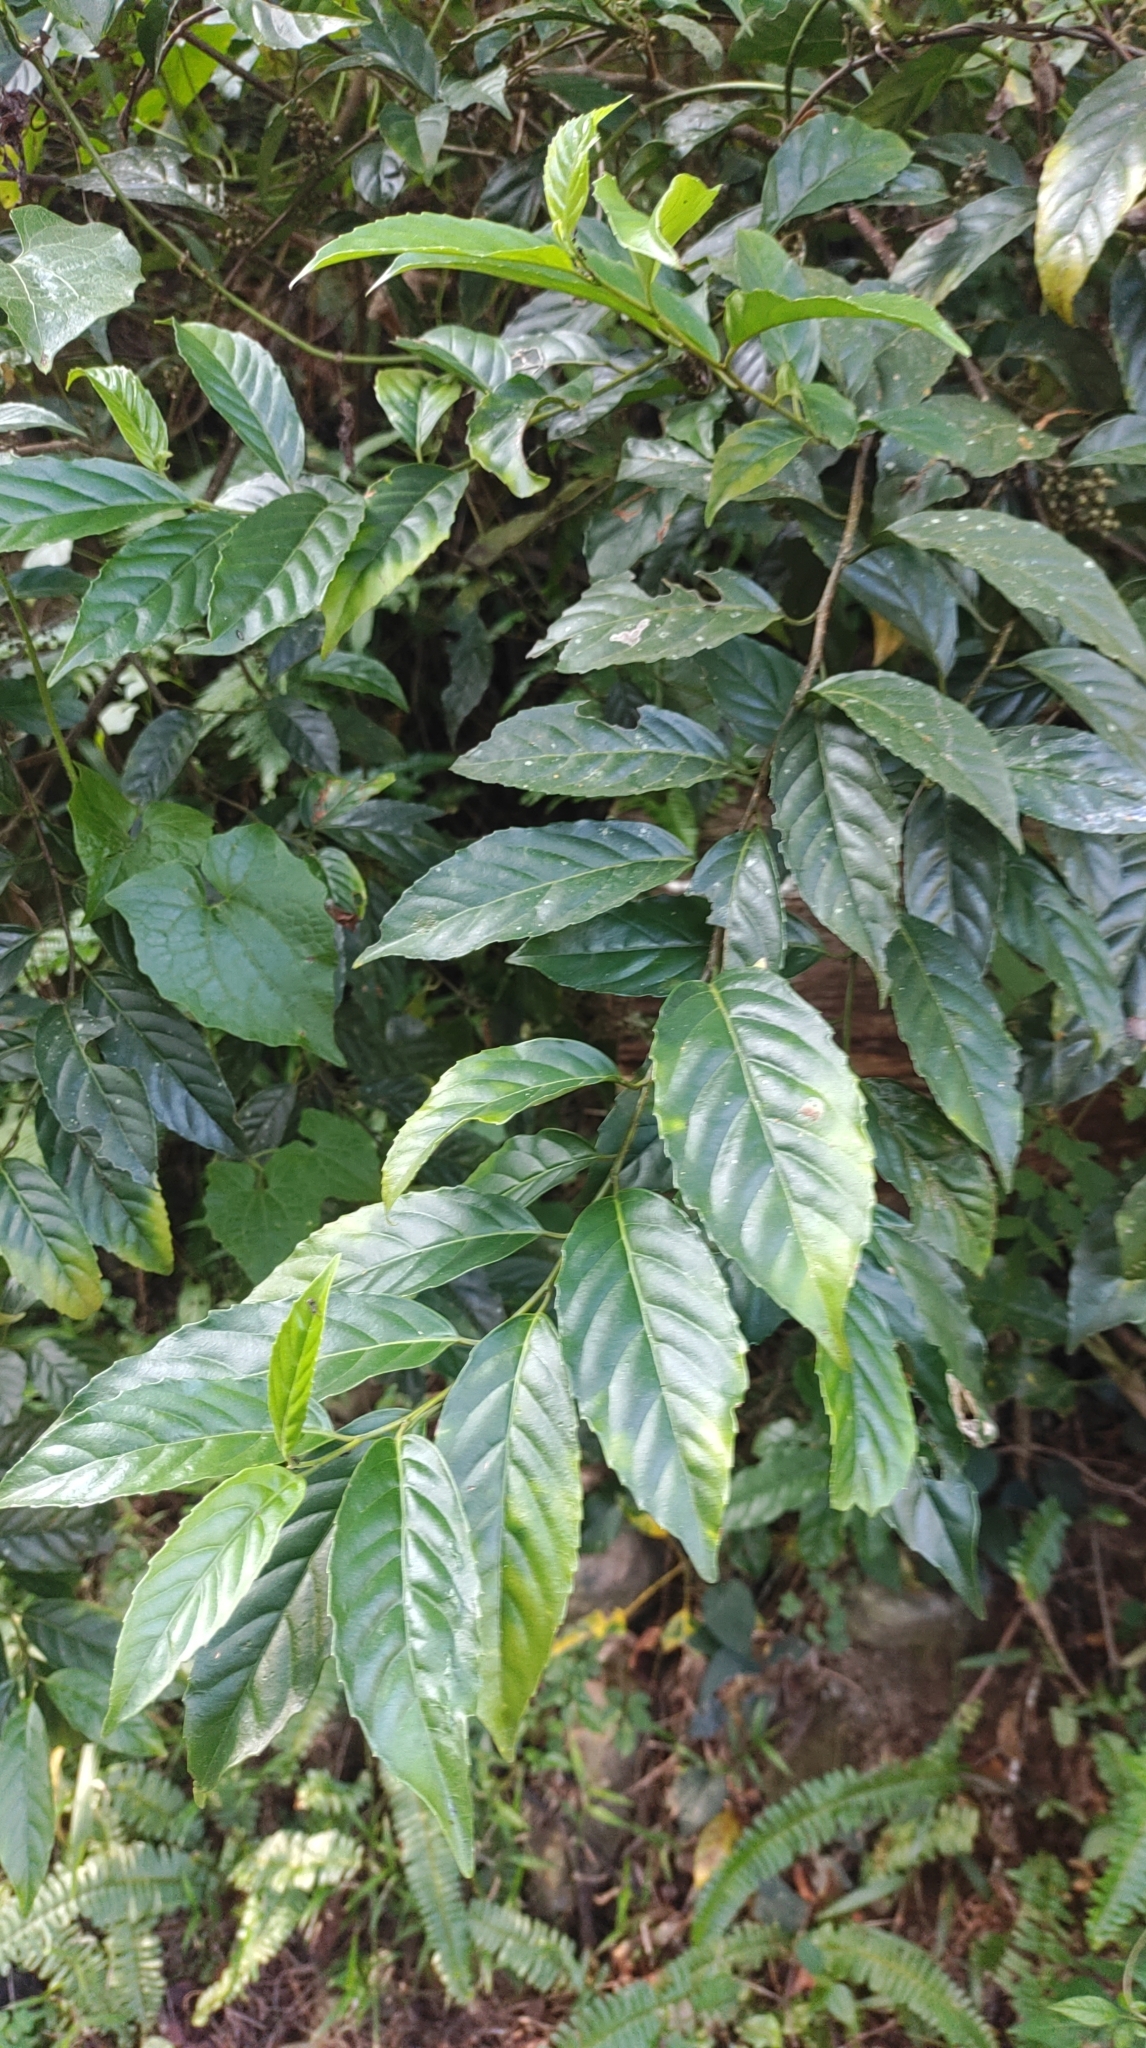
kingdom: Plantae
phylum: Tracheophyta
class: Magnoliopsida
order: Ericales
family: Primulaceae
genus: Maesa
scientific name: Maesa perlaria
